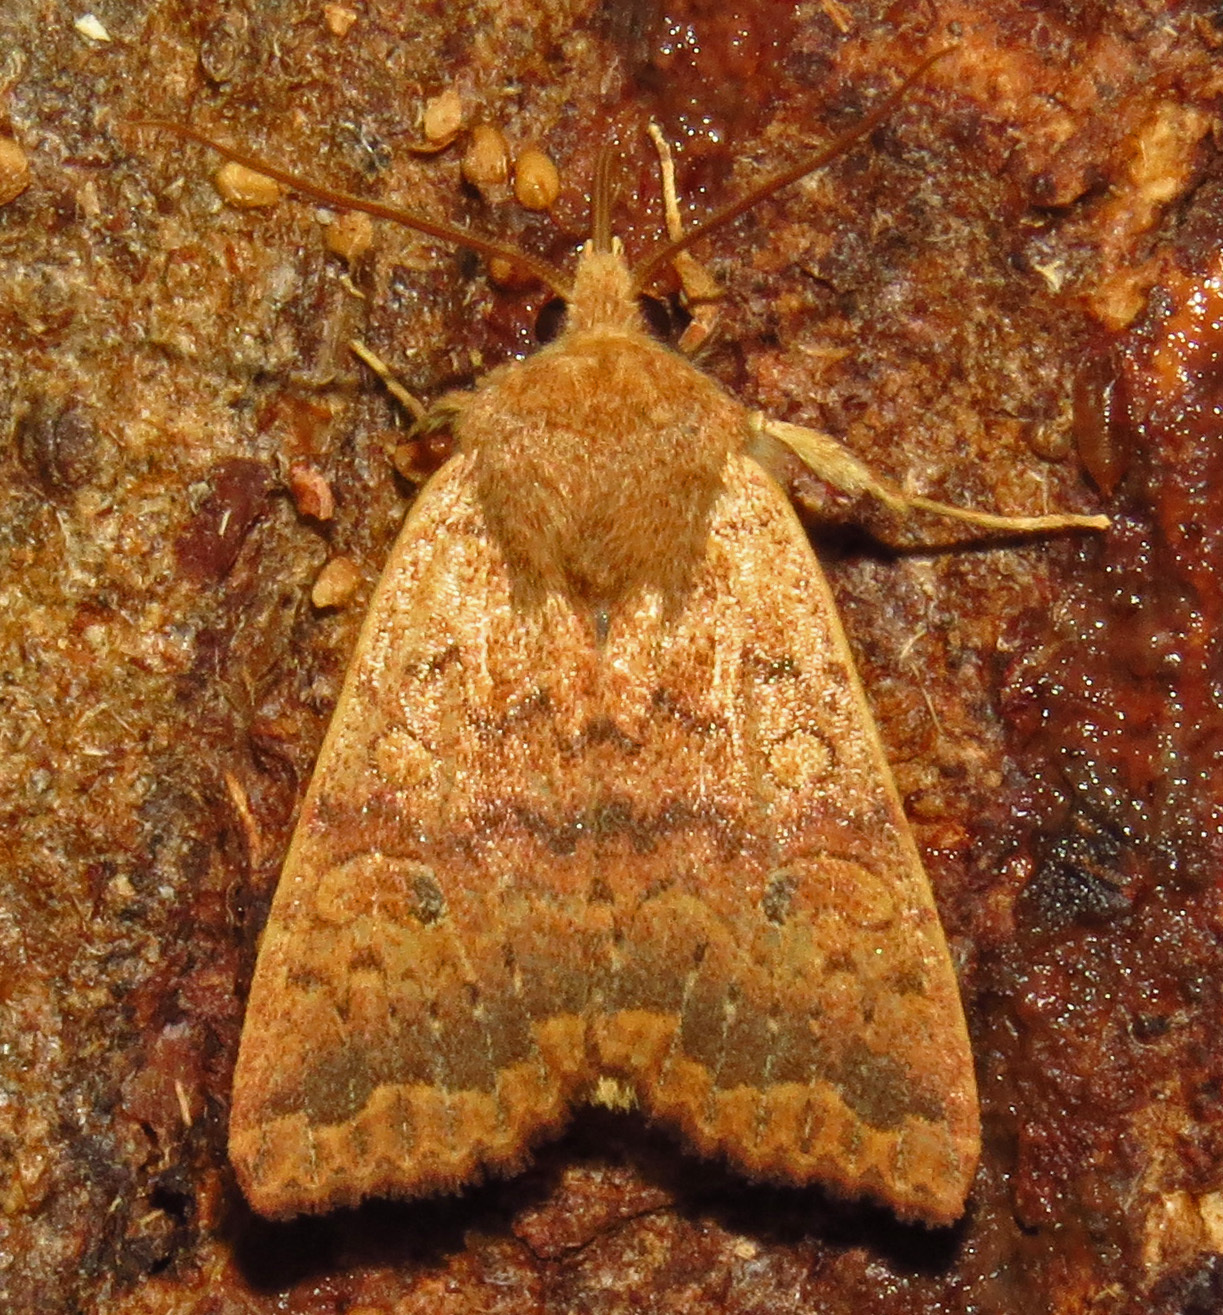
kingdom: Animalia
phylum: Arthropoda
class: Insecta
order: Lepidoptera
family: Noctuidae
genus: Agrochola
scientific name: Agrochola bicolorago
